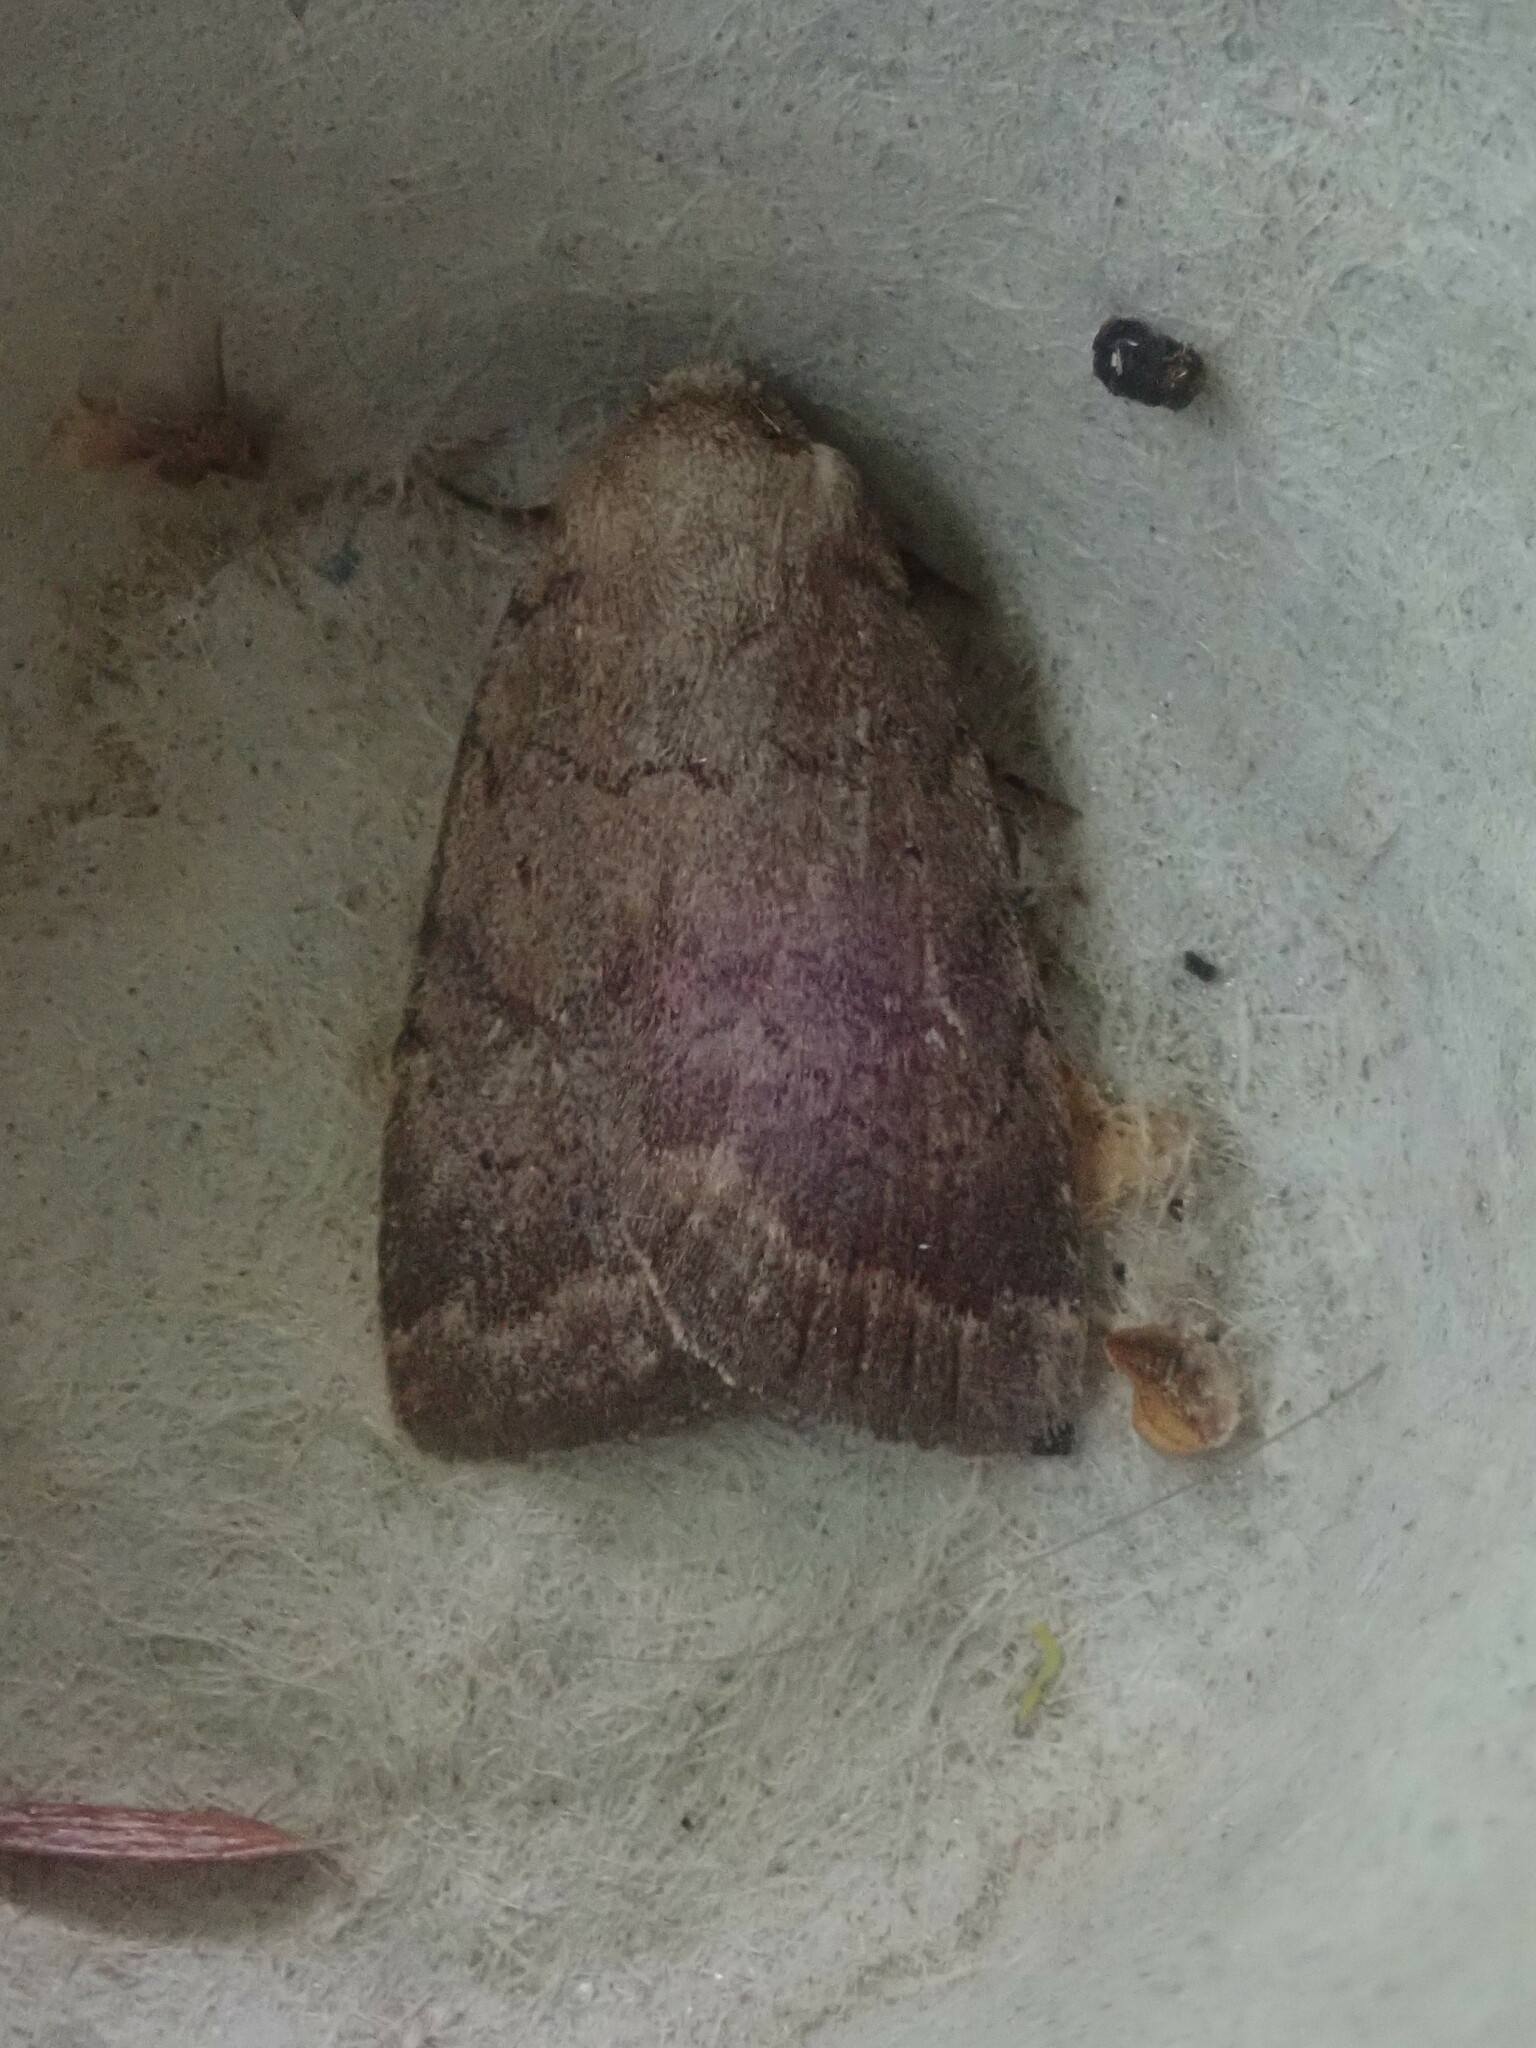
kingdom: Animalia
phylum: Arthropoda
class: Insecta
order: Lepidoptera
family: Noctuidae
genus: Athetis
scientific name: Athetis tarda
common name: Slowpoke moth
